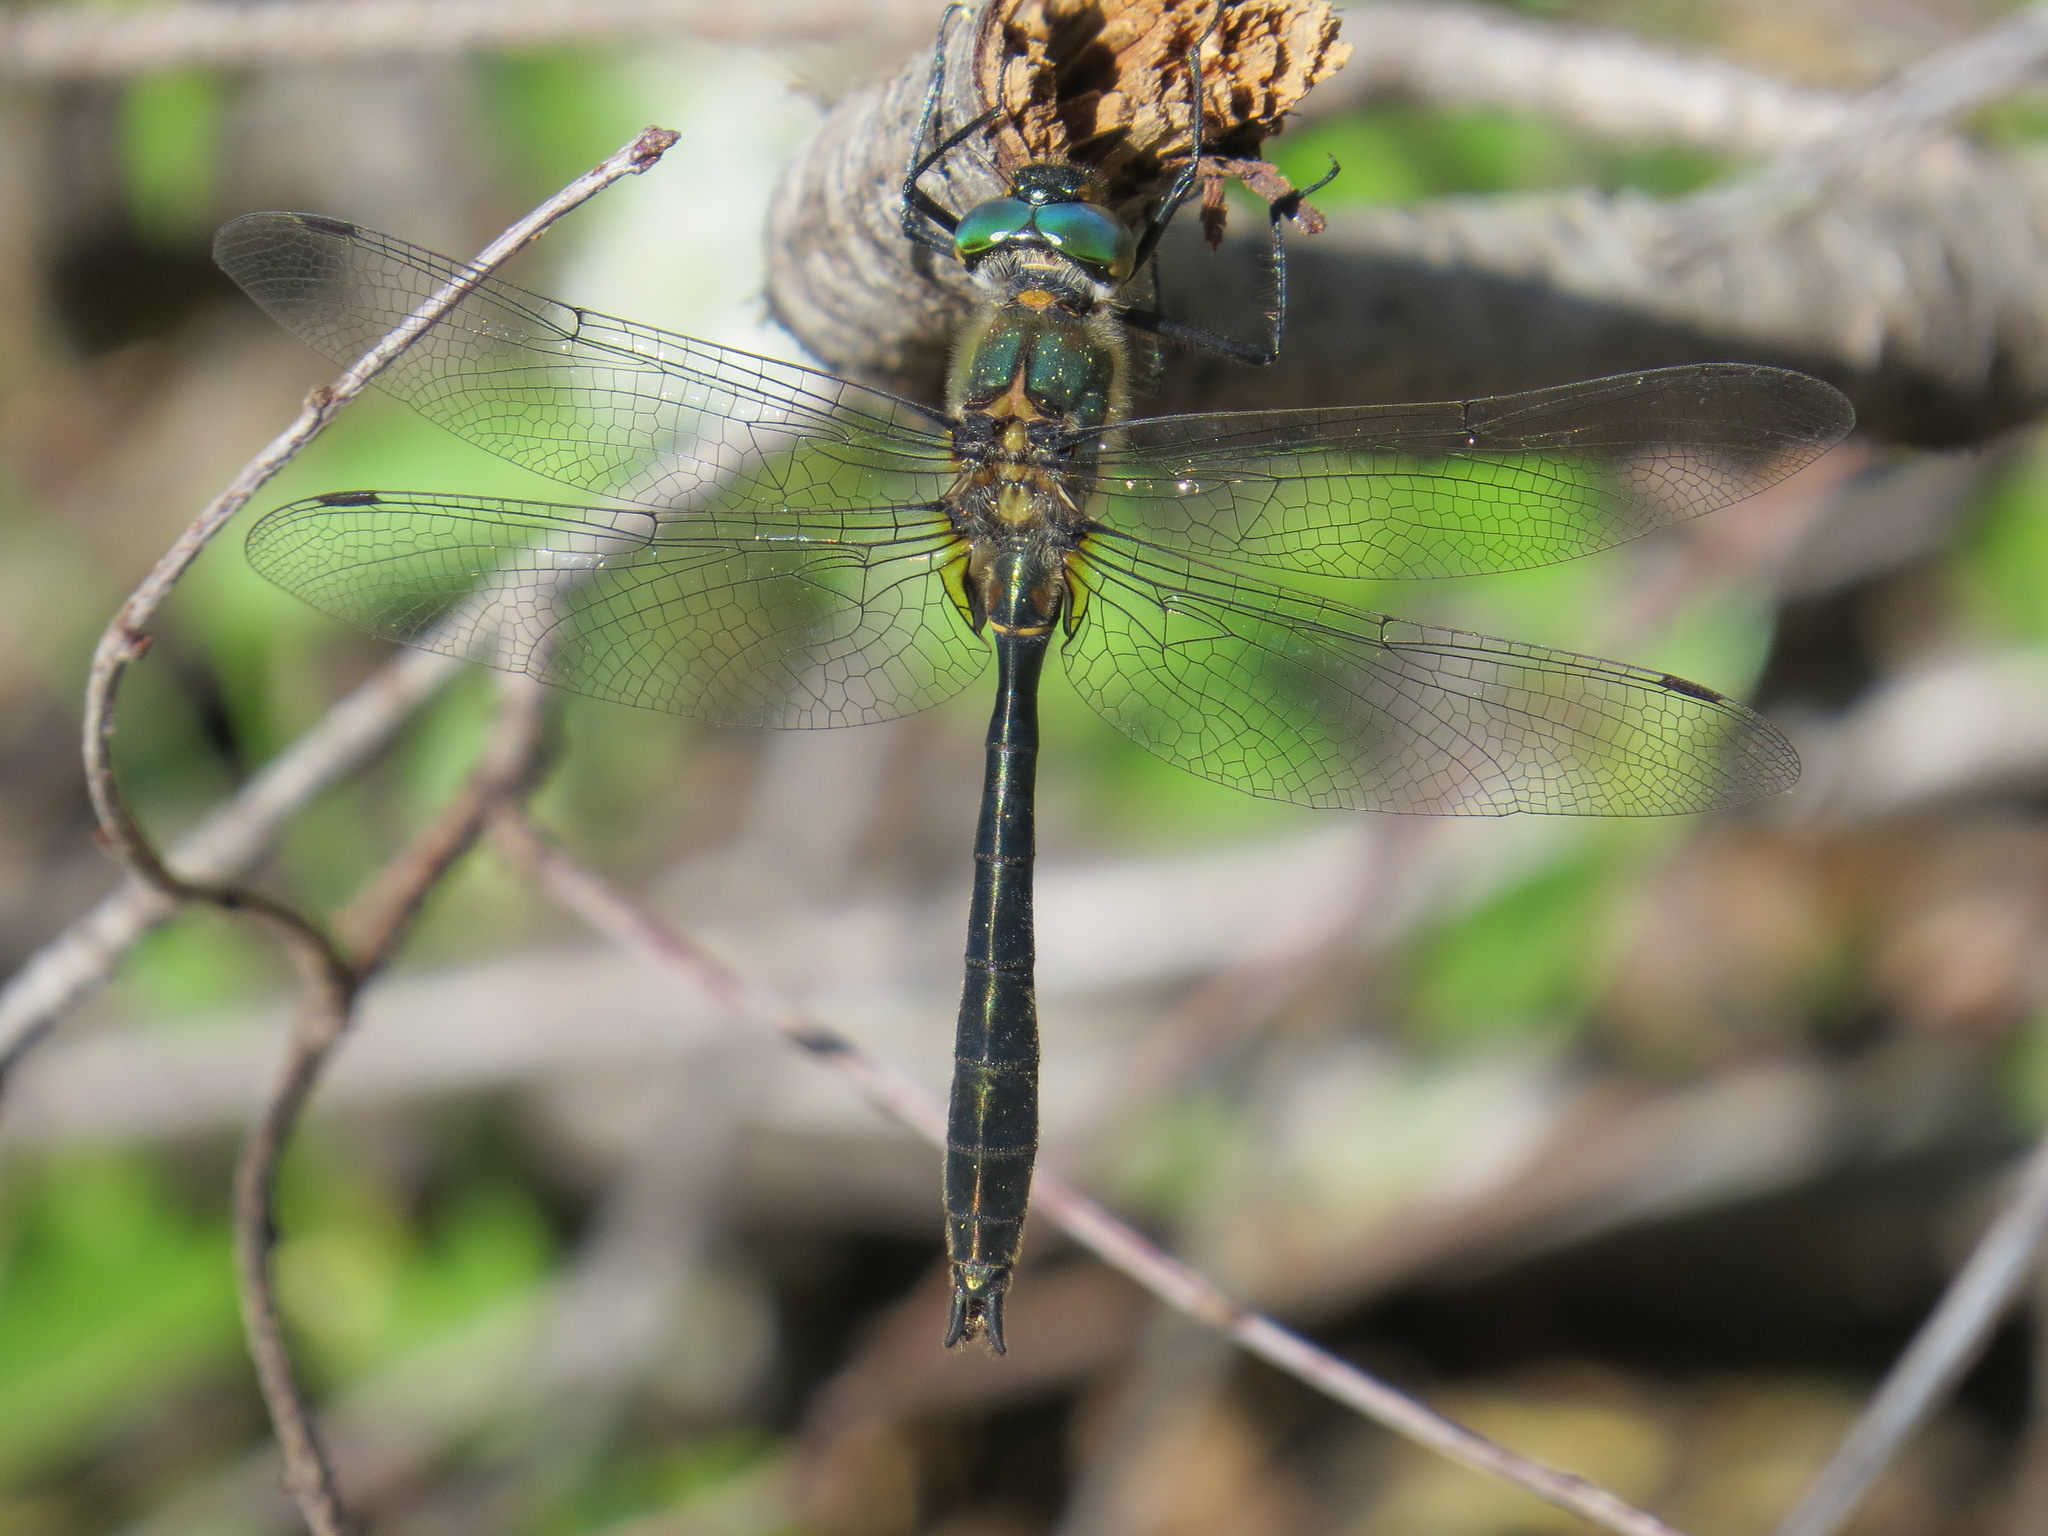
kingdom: Animalia
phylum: Arthropoda
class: Insecta
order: Odonata
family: Corduliidae
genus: Cordulia
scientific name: Cordulia shurtleffii
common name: American emerald
